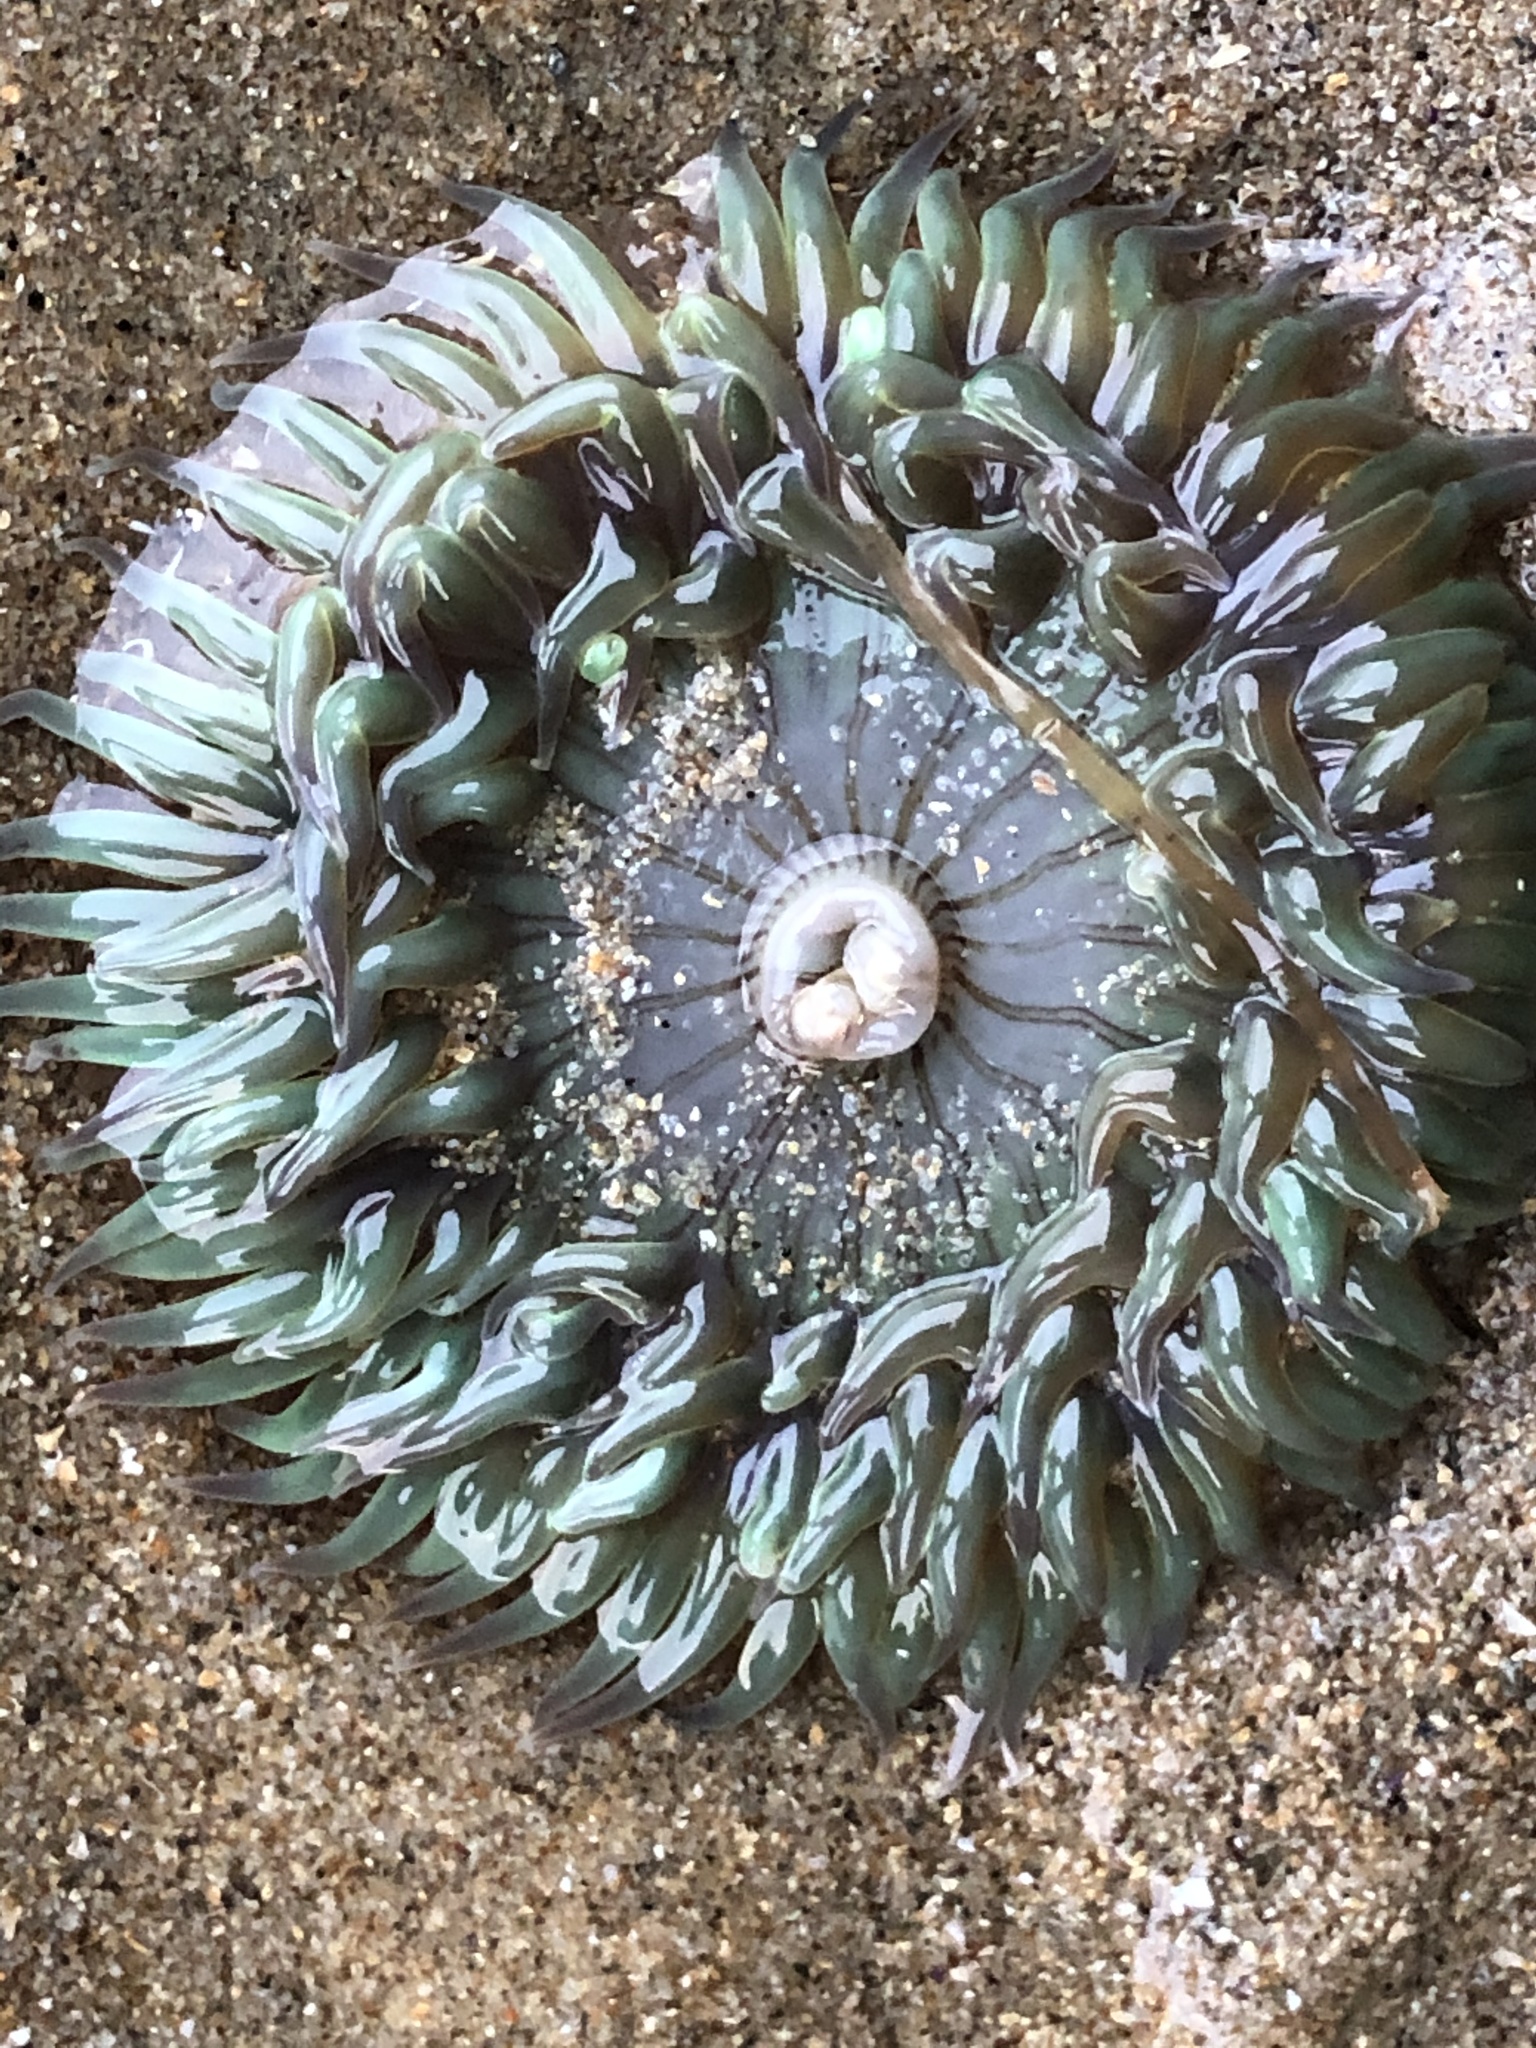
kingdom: Animalia
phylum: Cnidaria
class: Anthozoa
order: Actiniaria
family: Actiniidae
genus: Anthopleura
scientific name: Anthopleura sola
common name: Sun anemone
